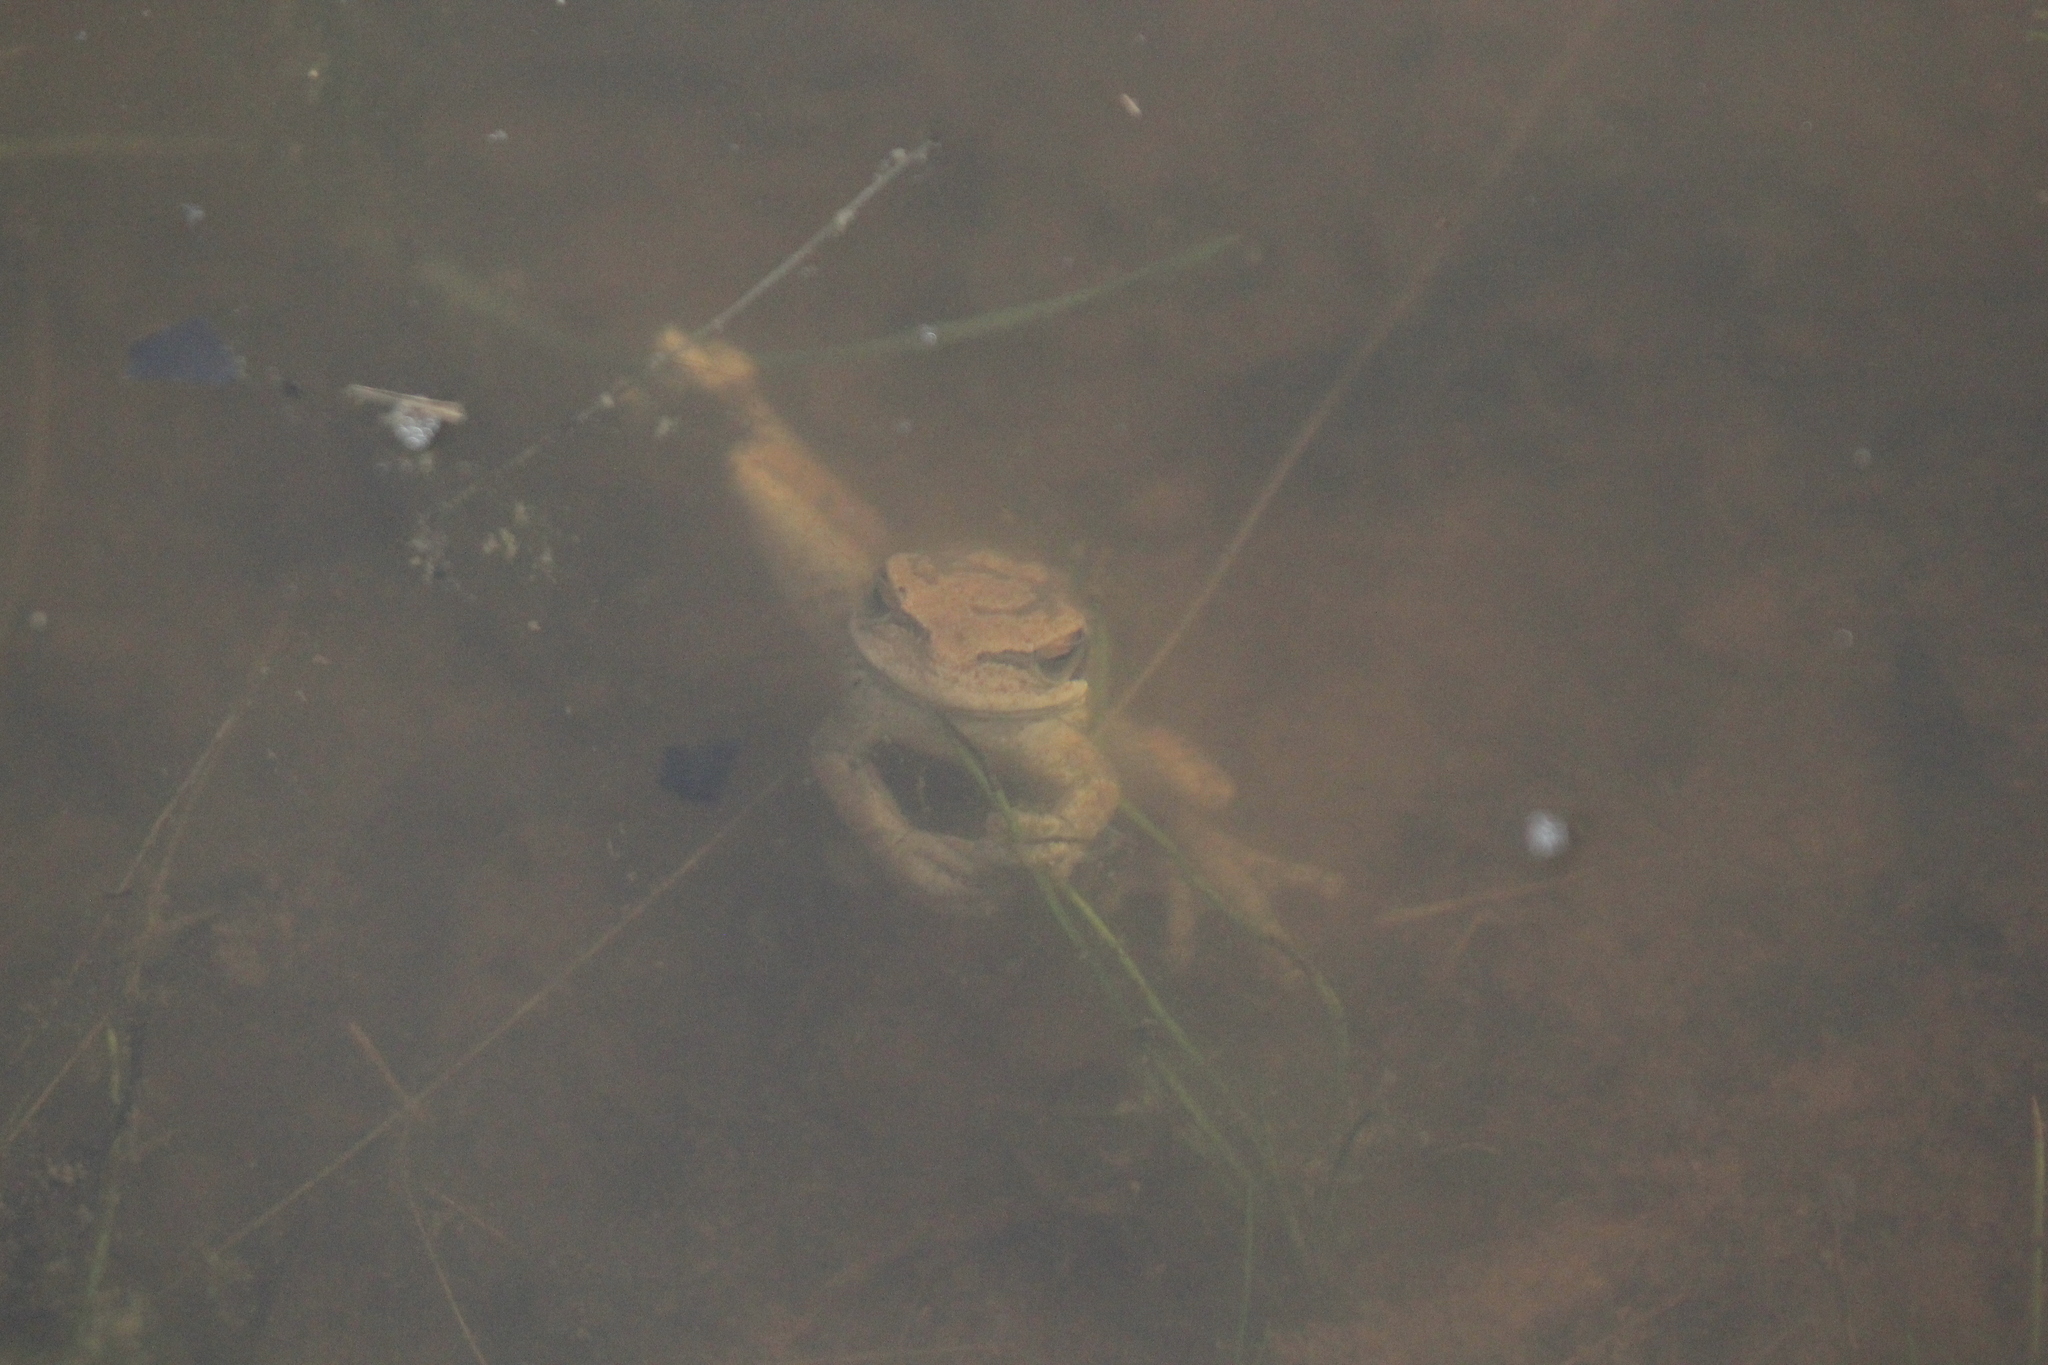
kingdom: Animalia
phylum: Chordata
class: Amphibia
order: Anura
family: Hylidae
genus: Boana
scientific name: Boana pulchella
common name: Montevideo treefrog
